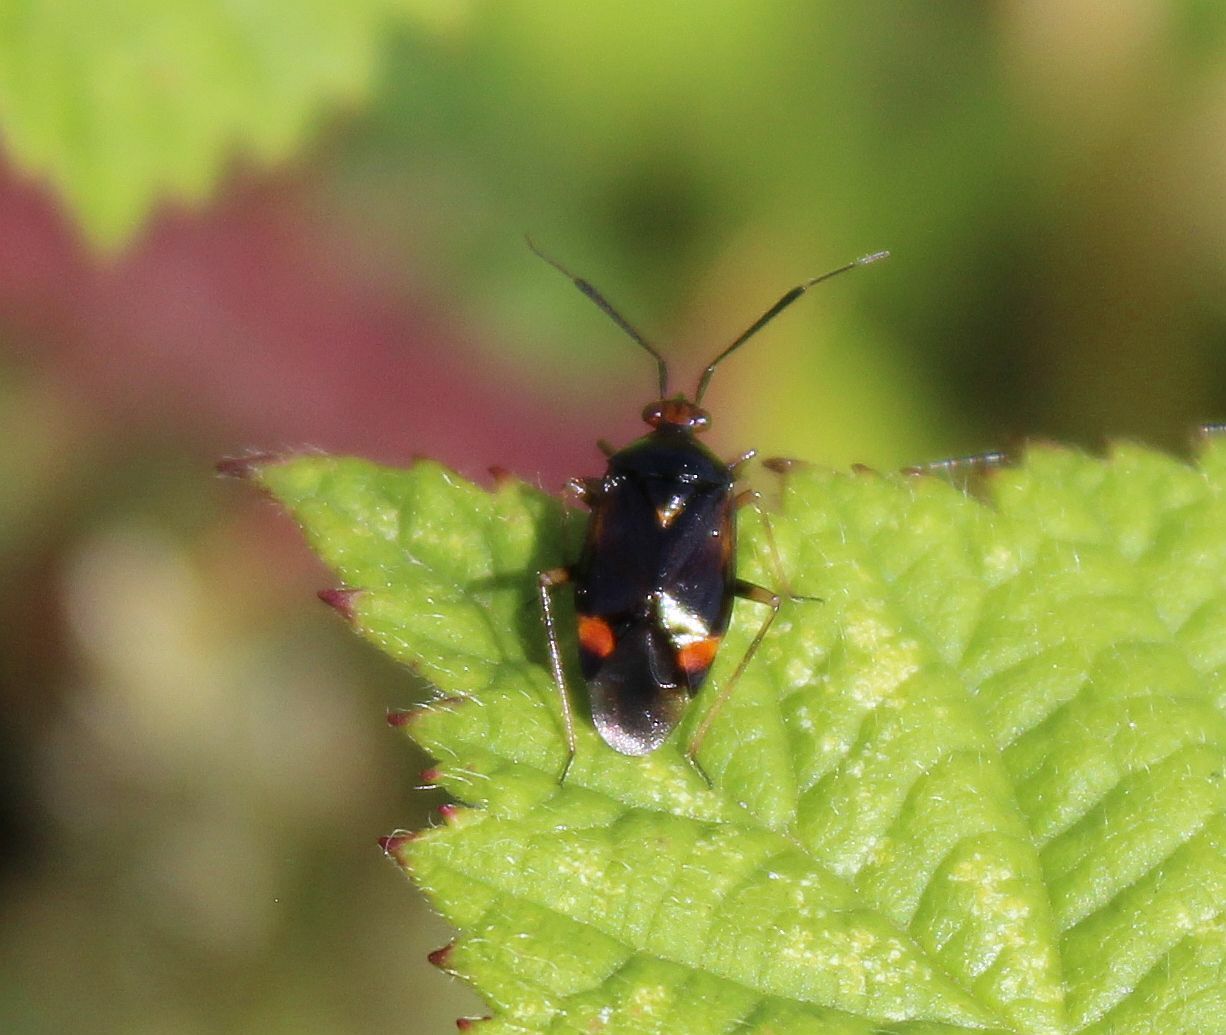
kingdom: Animalia
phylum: Arthropoda
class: Insecta
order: Hemiptera
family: Miridae
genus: Deraeocoris
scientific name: Deraeocoris ruber
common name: Plant bug
